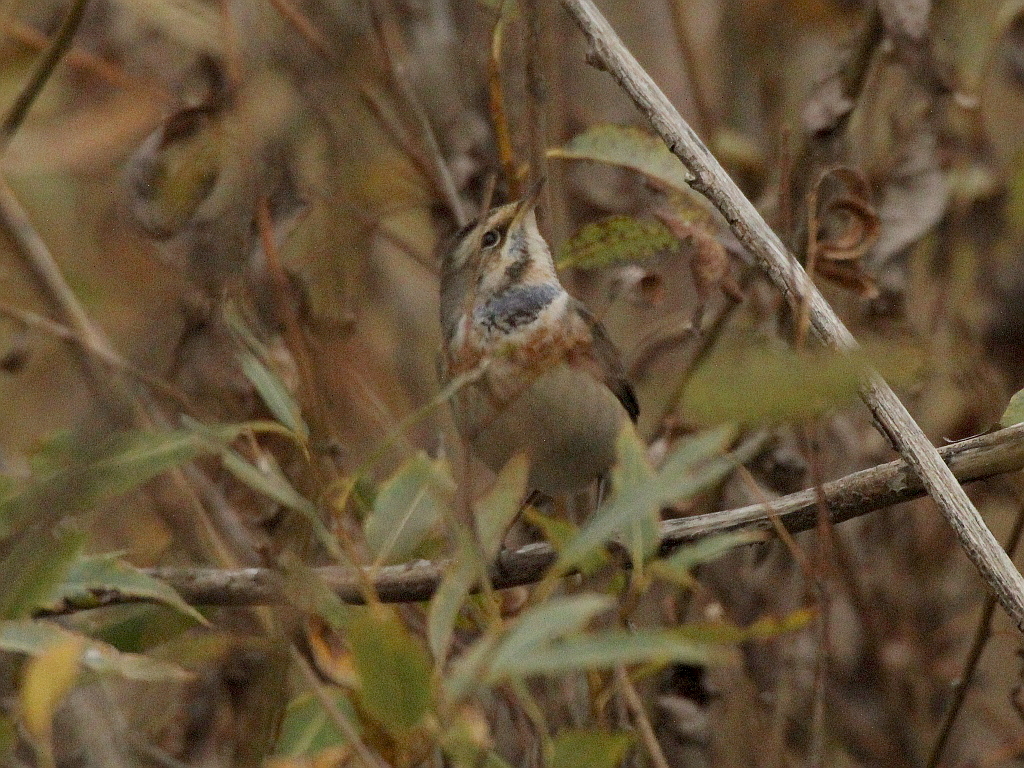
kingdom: Animalia
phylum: Chordata
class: Aves
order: Passeriformes
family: Muscicapidae
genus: Luscinia
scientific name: Luscinia svecica
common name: Bluethroat
